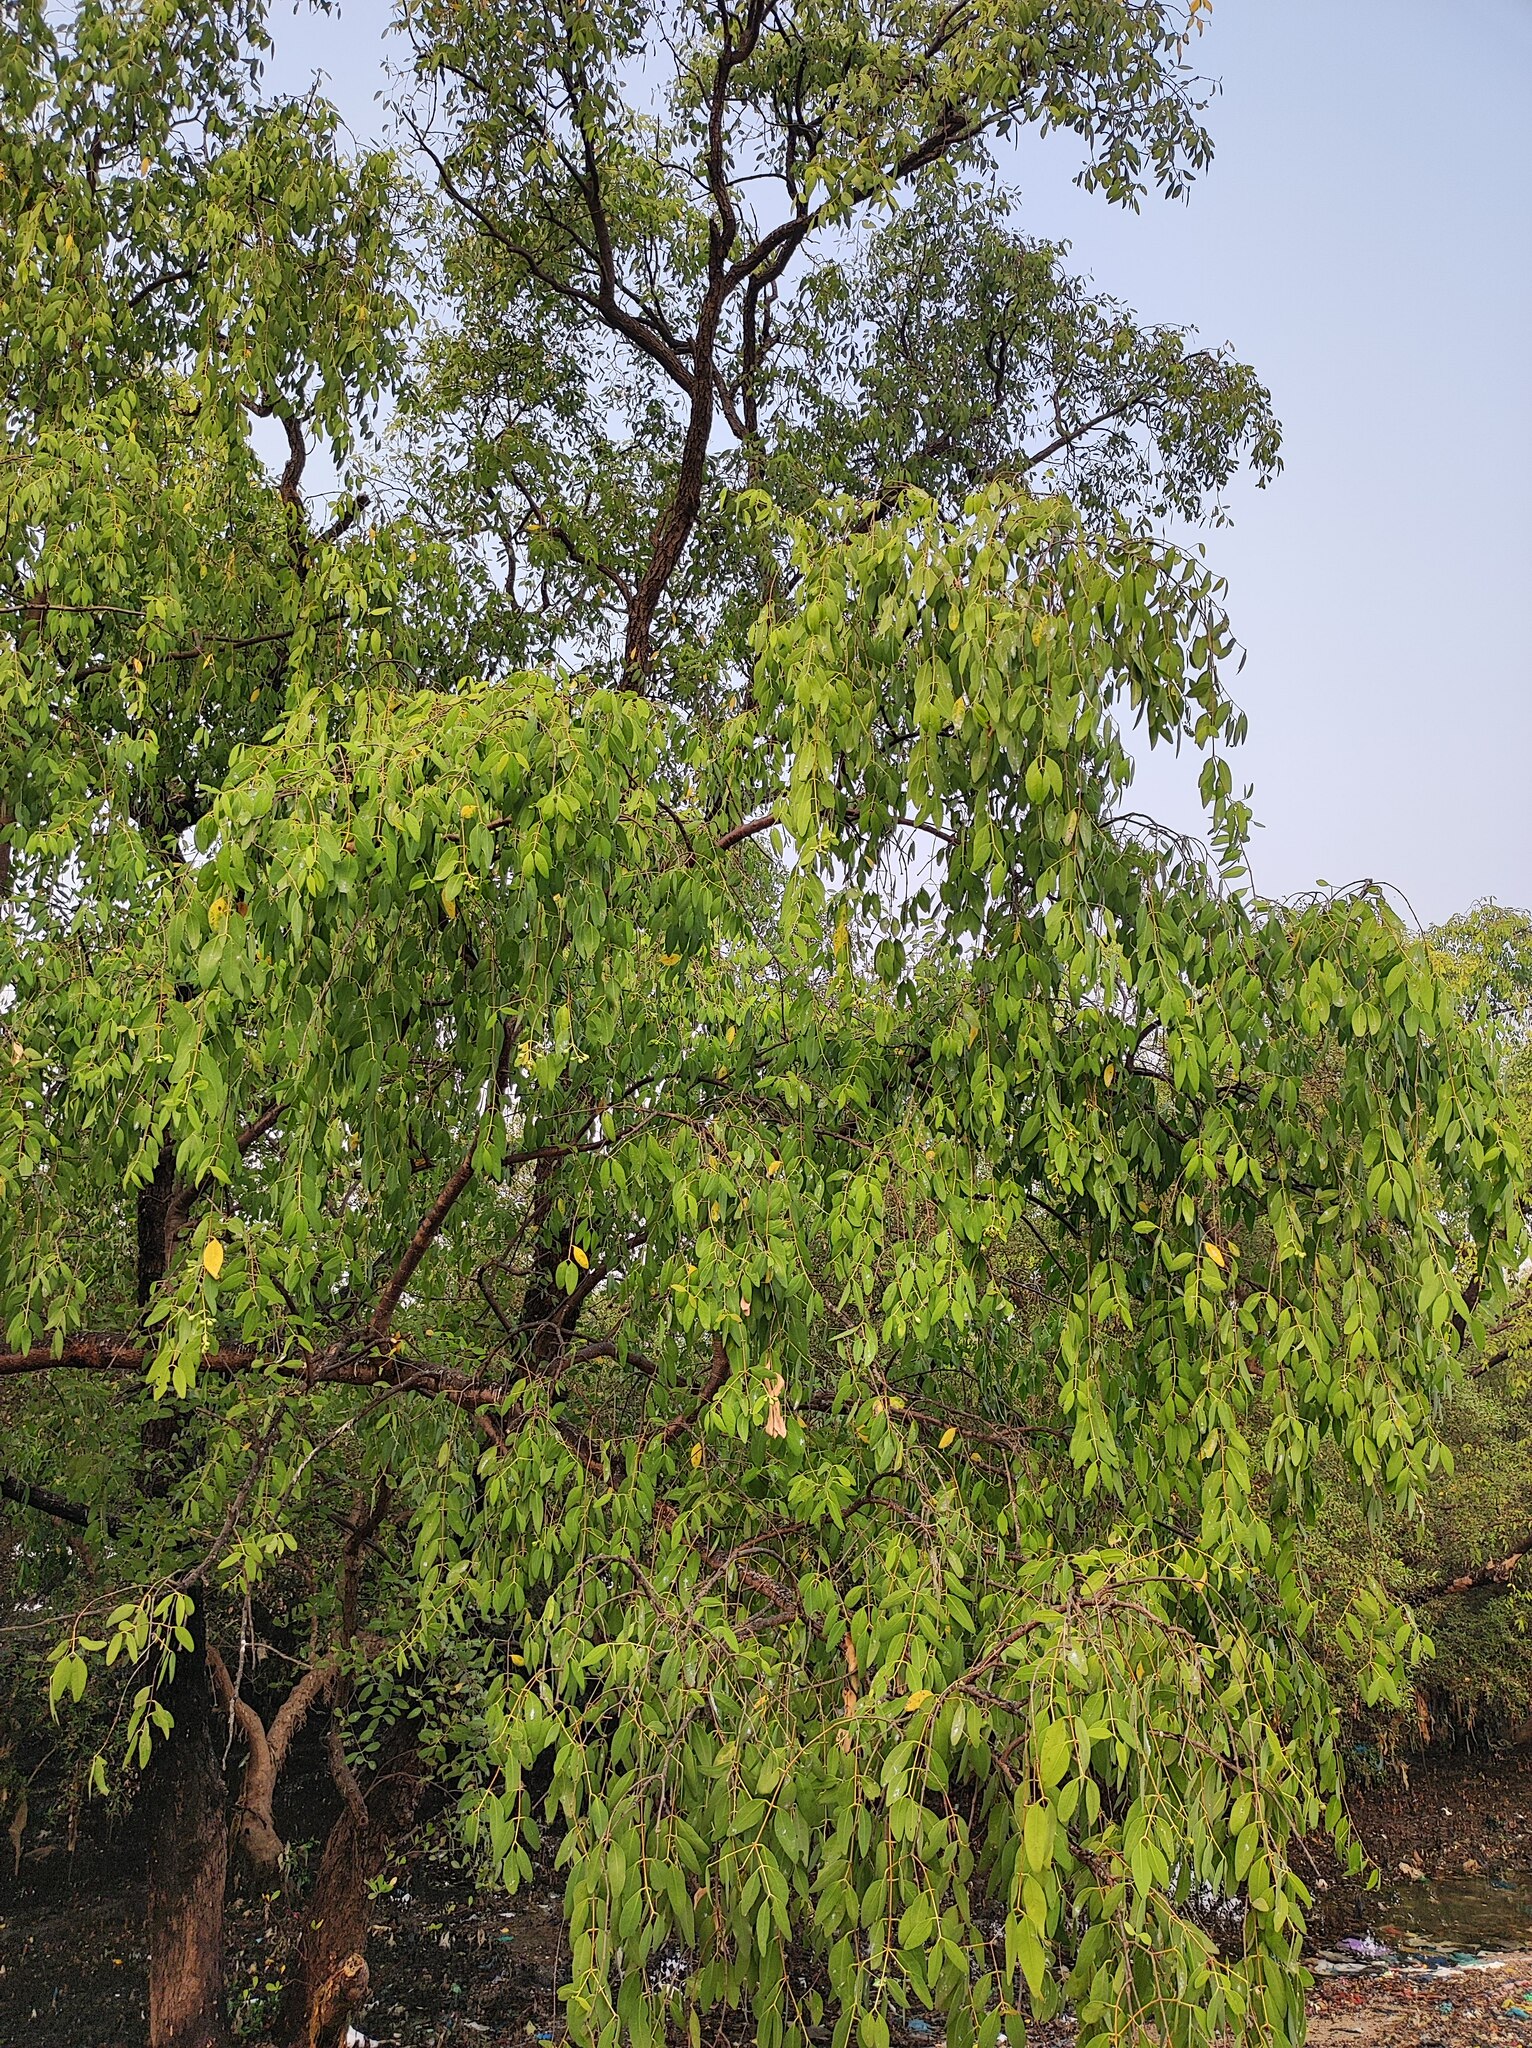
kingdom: Plantae
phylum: Tracheophyta
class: Magnoliopsida
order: Myrtales
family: Lythraceae
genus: Sonneratia
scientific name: Sonneratia apetala
